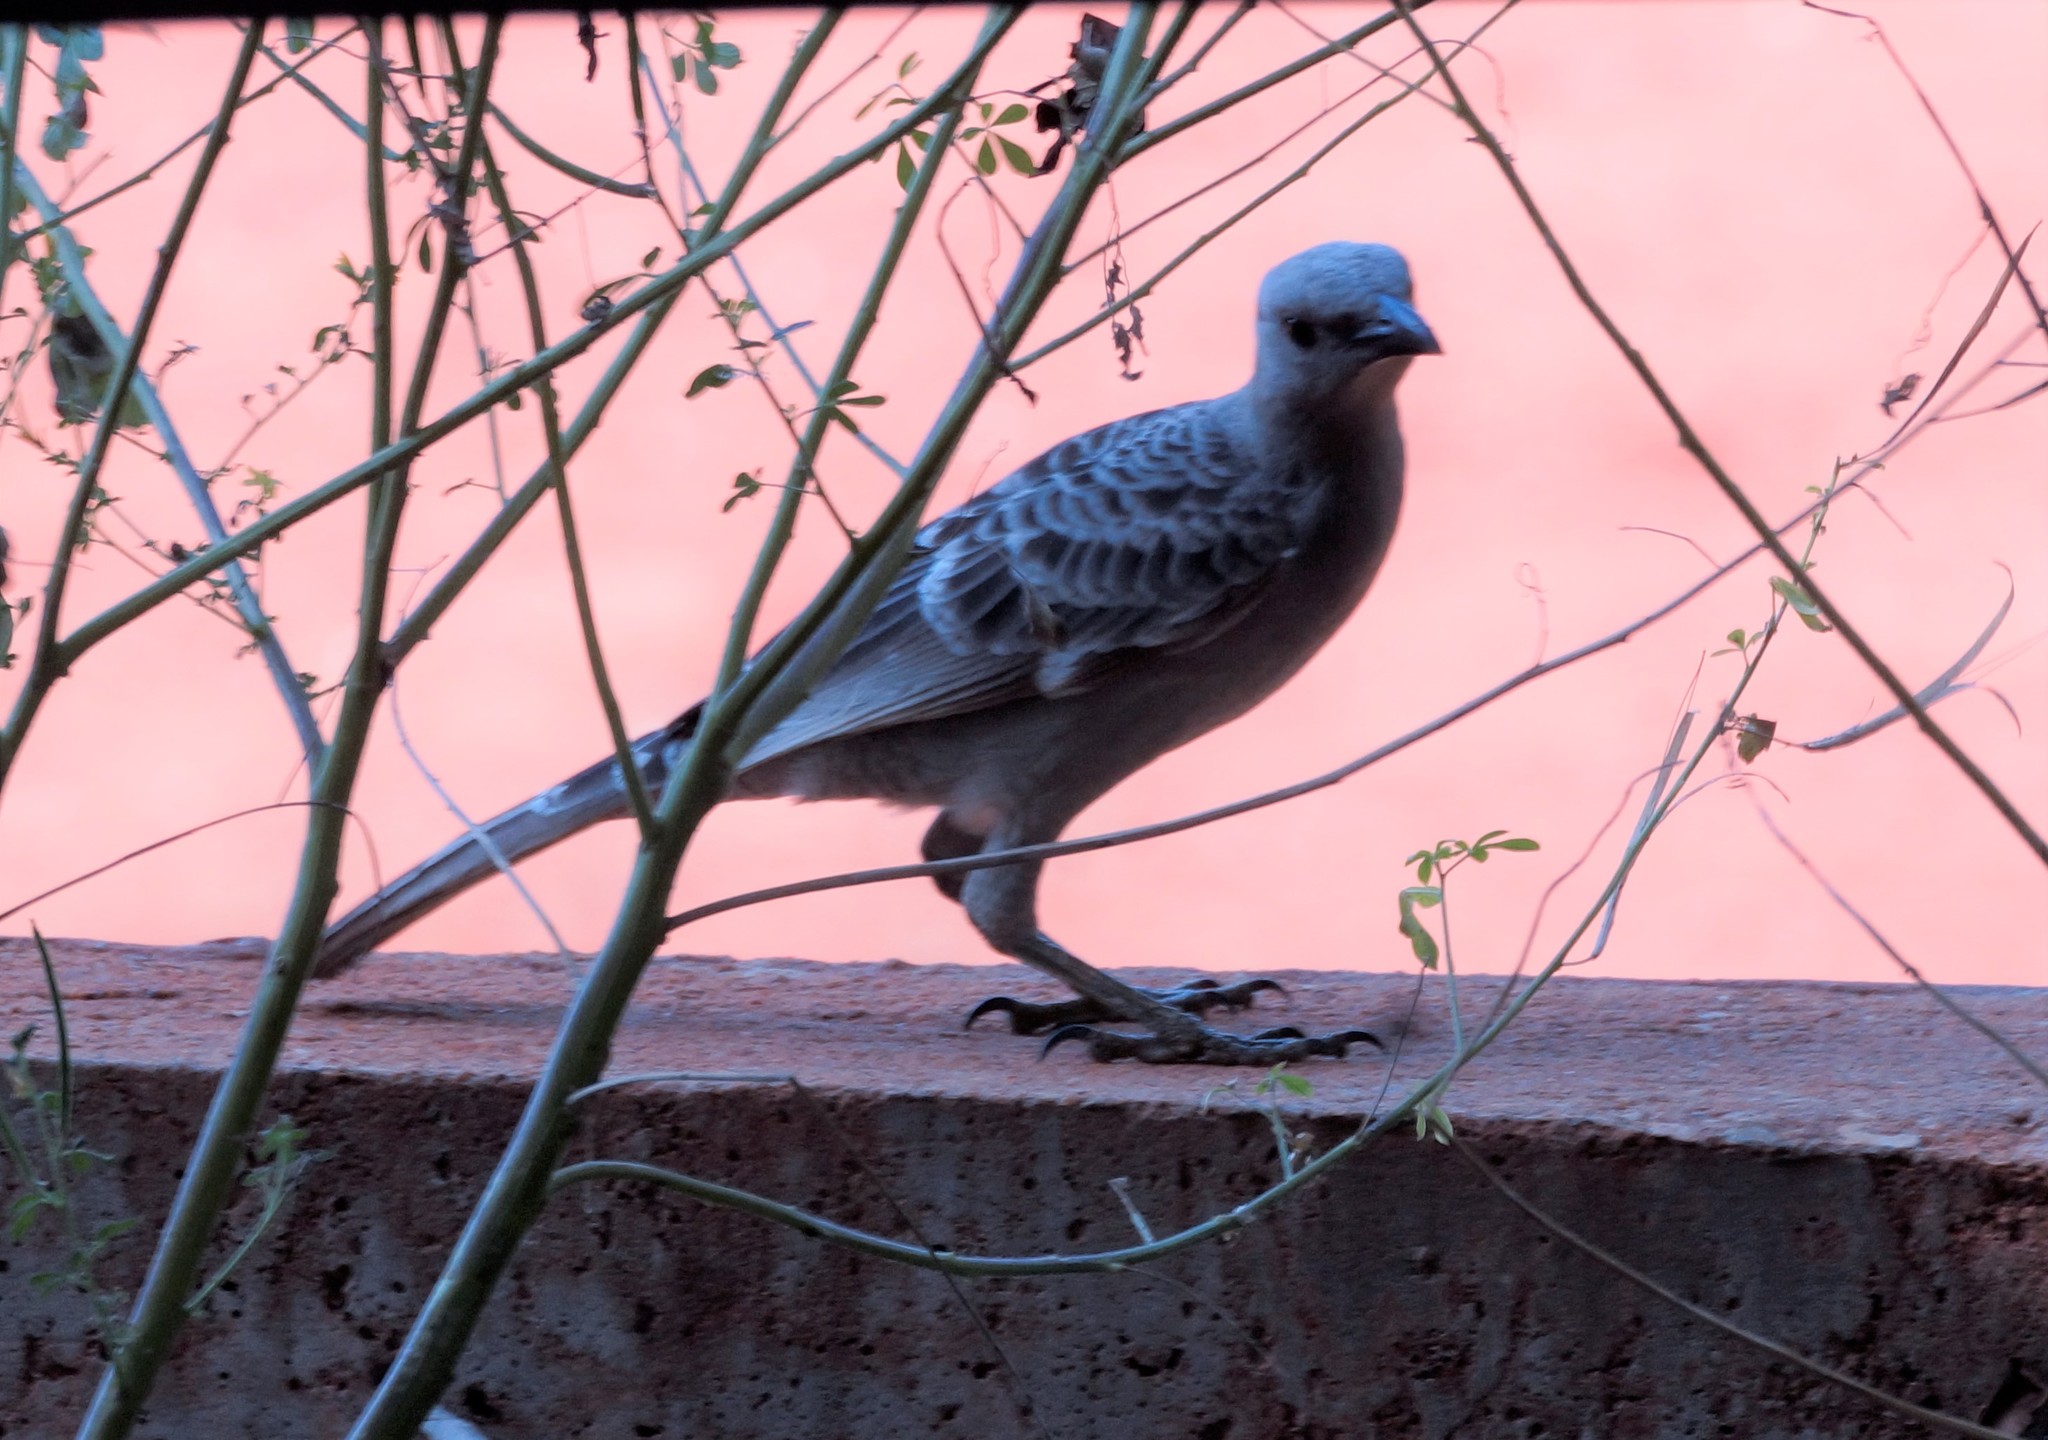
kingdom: Animalia
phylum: Chordata
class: Aves
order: Passeriformes
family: Ptilonorhynchidae
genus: Chlamydera
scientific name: Chlamydera nuchalis
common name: Great bowerbird
